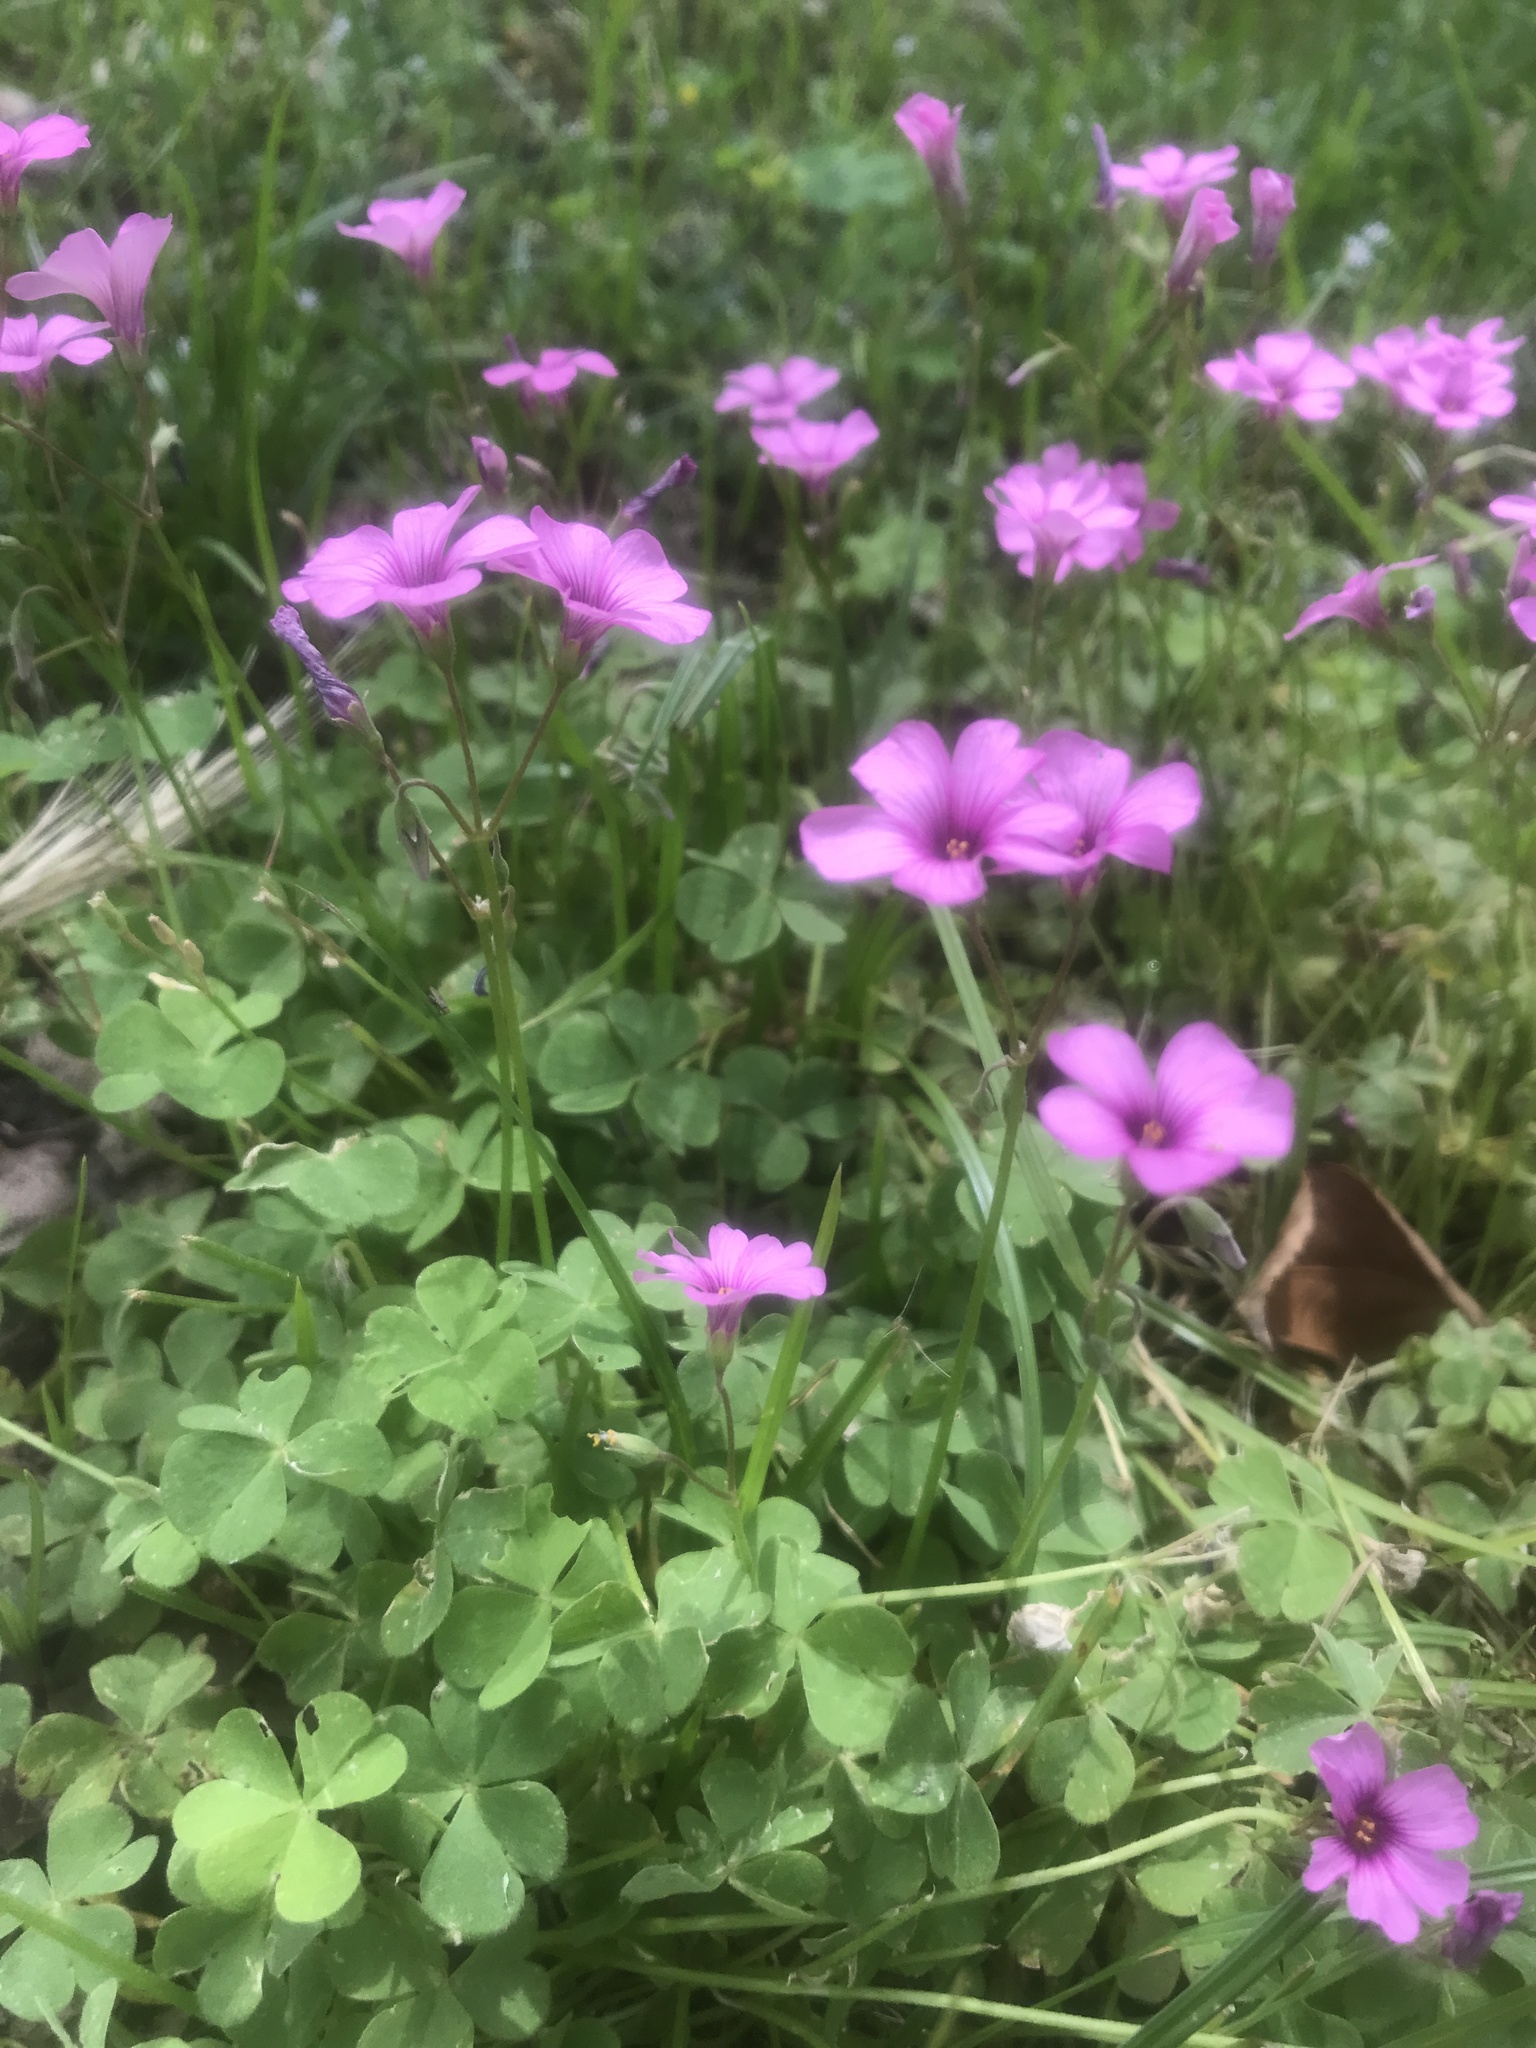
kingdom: Plantae
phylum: Tracheophyta
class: Magnoliopsida
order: Oxalidales
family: Oxalidaceae
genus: Oxalis
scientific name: Oxalis articulata
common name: Pink-sorrel
